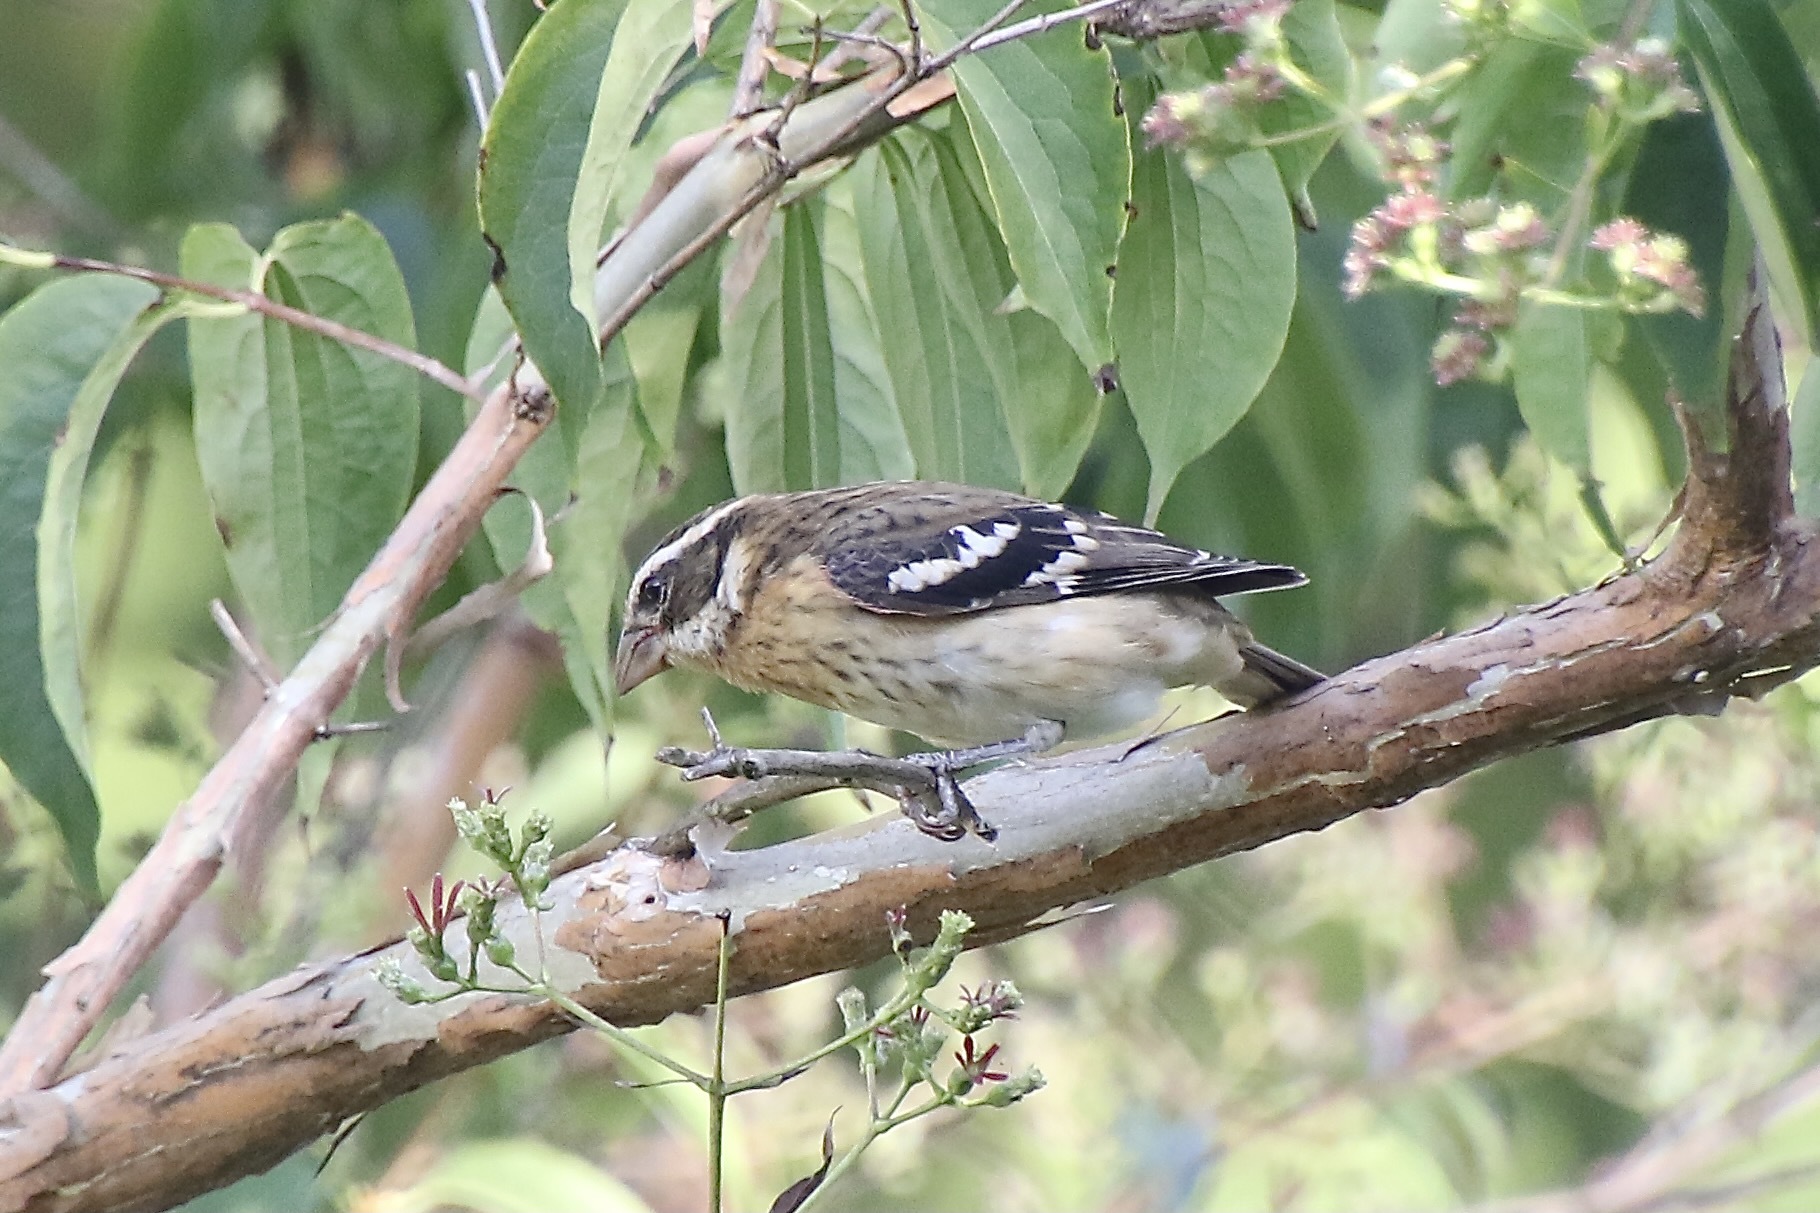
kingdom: Animalia
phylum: Chordata
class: Aves
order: Passeriformes
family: Cardinalidae
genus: Pheucticus
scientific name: Pheucticus ludovicianus
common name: Rose-breasted grosbeak
